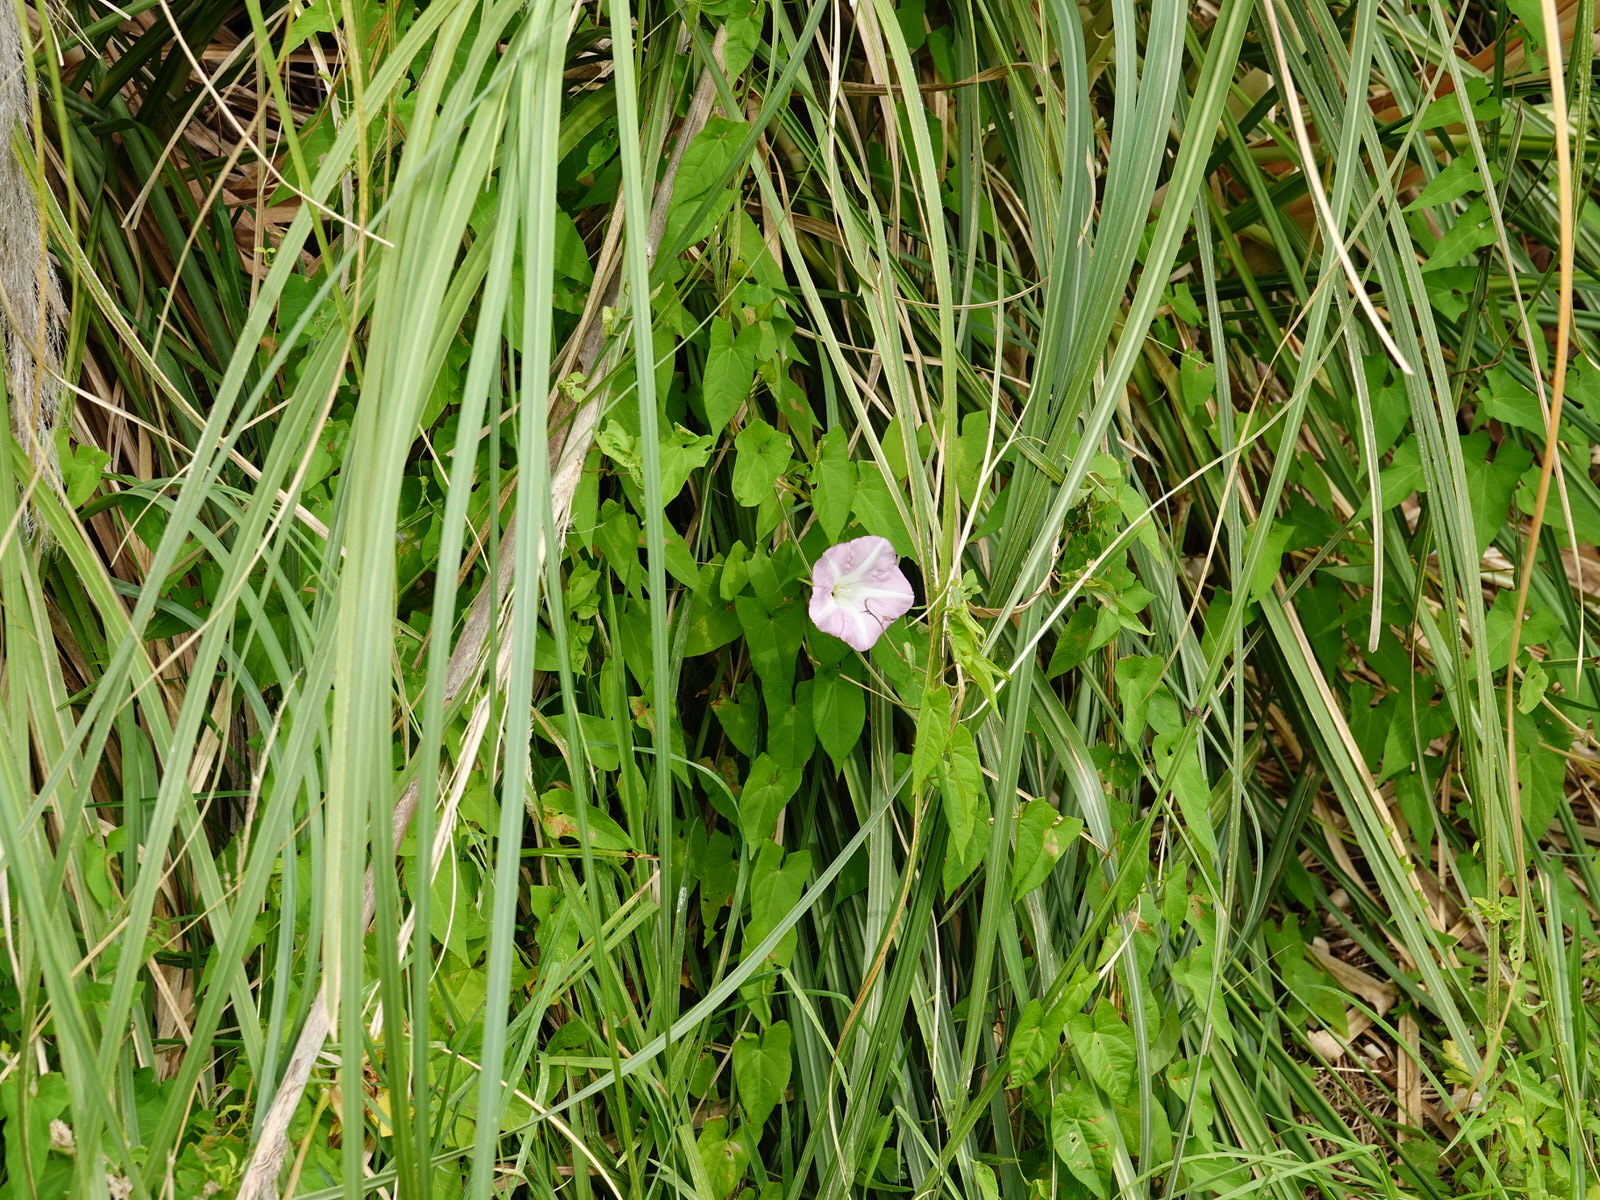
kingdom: Plantae
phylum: Tracheophyta
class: Magnoliopsida
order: Solanales
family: Convolvulaceae
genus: Calystegia
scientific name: Calystegia sepium
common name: Hedge bindweed
